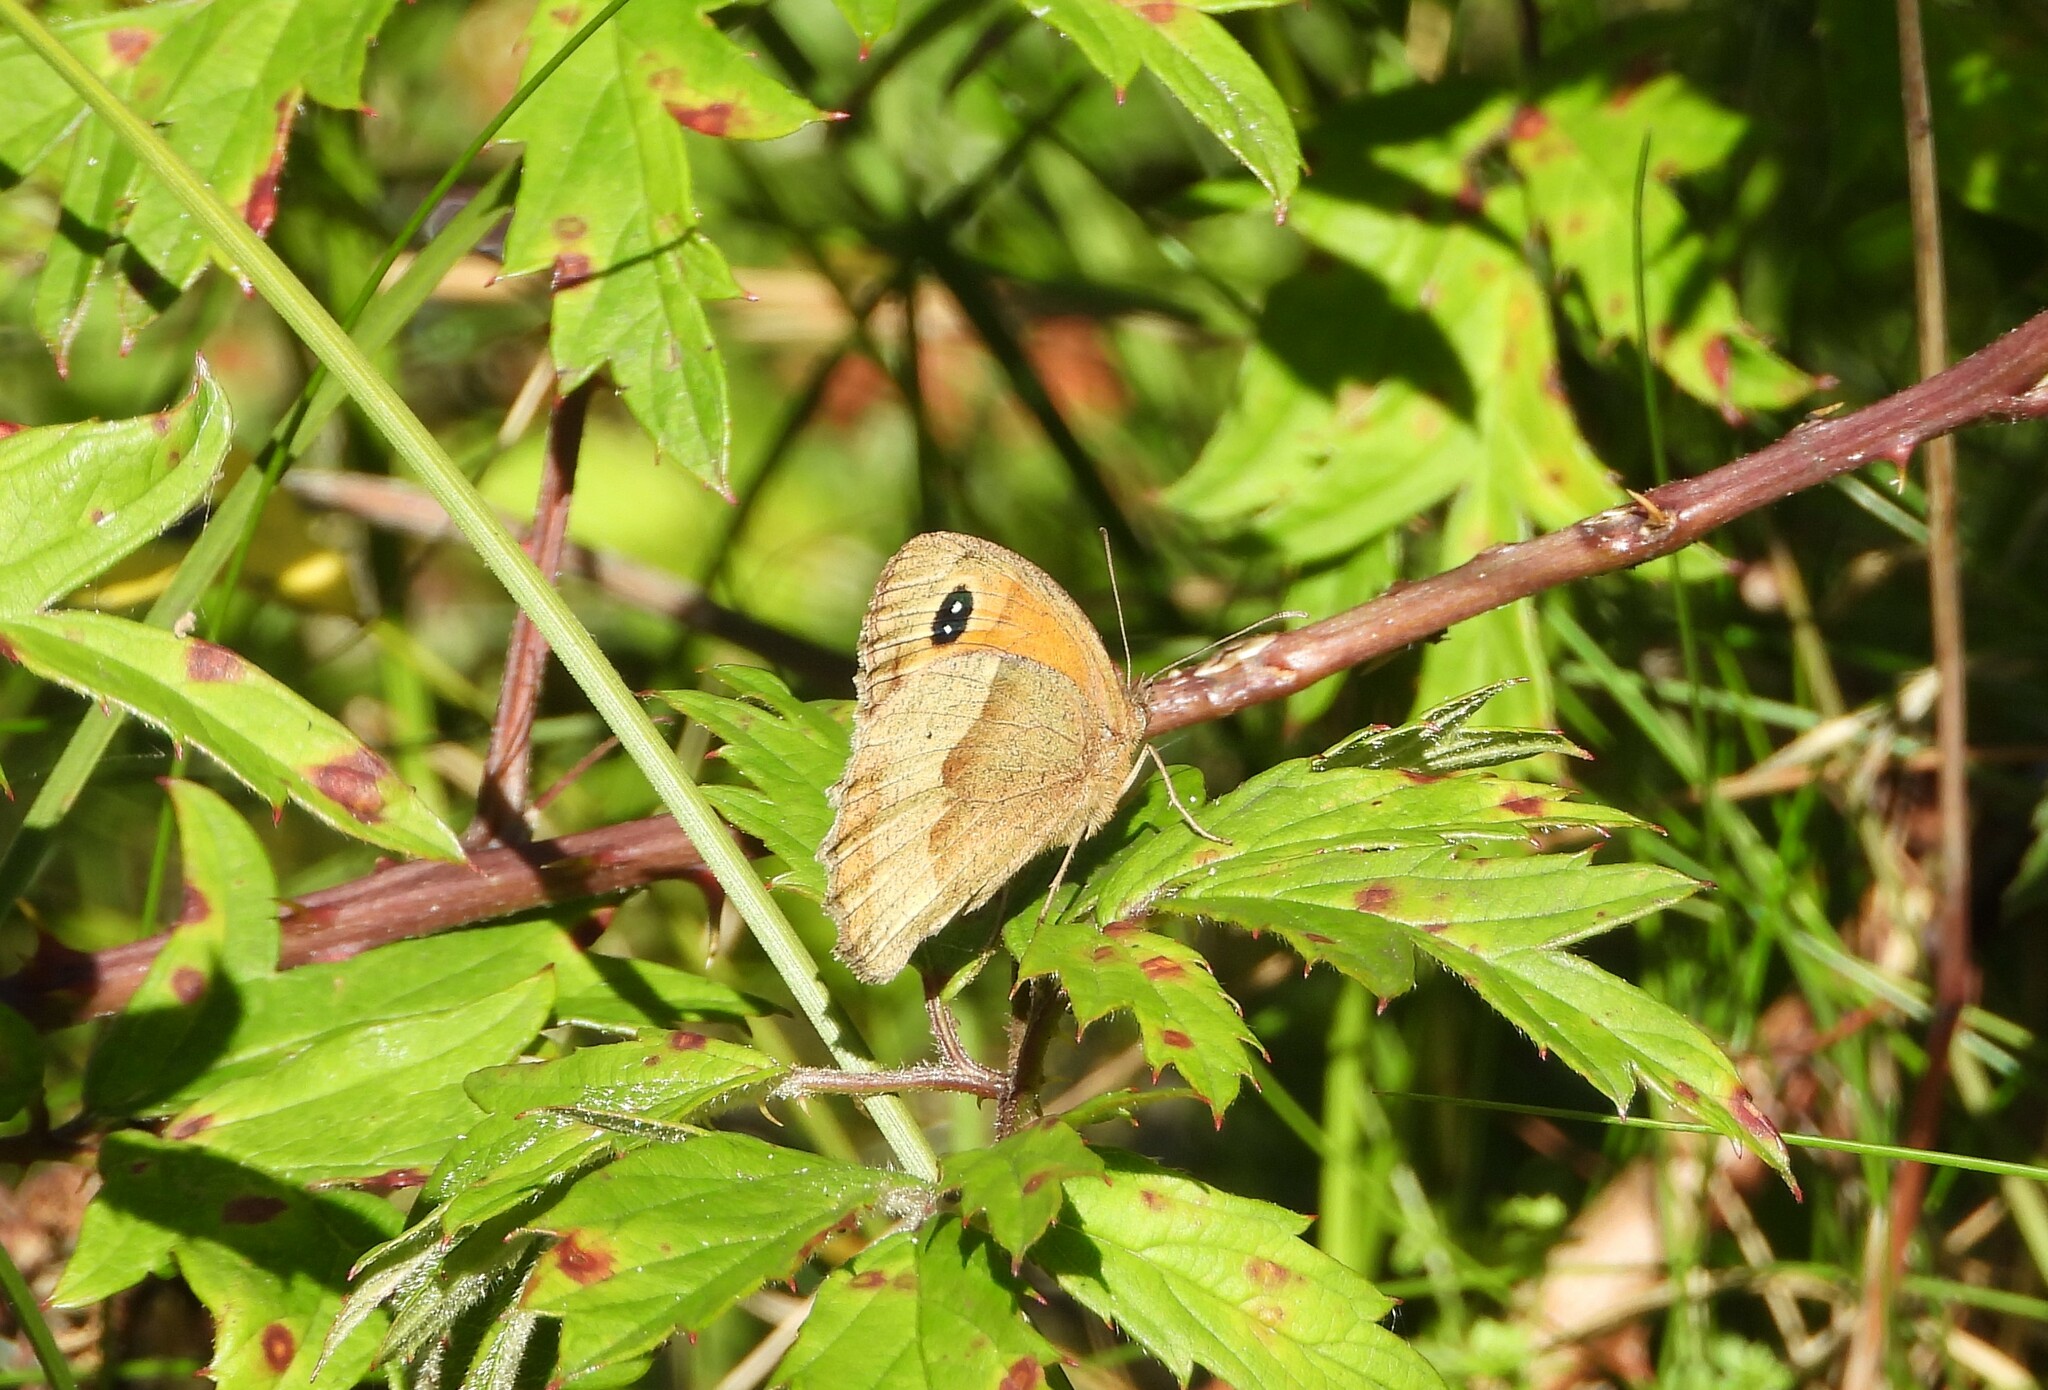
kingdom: Animalia
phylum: Arthropoda
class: Insecta
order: Lepidoptera
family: Nymphalidae
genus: Maniola
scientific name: Maniola jurtina
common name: Meadow brown
